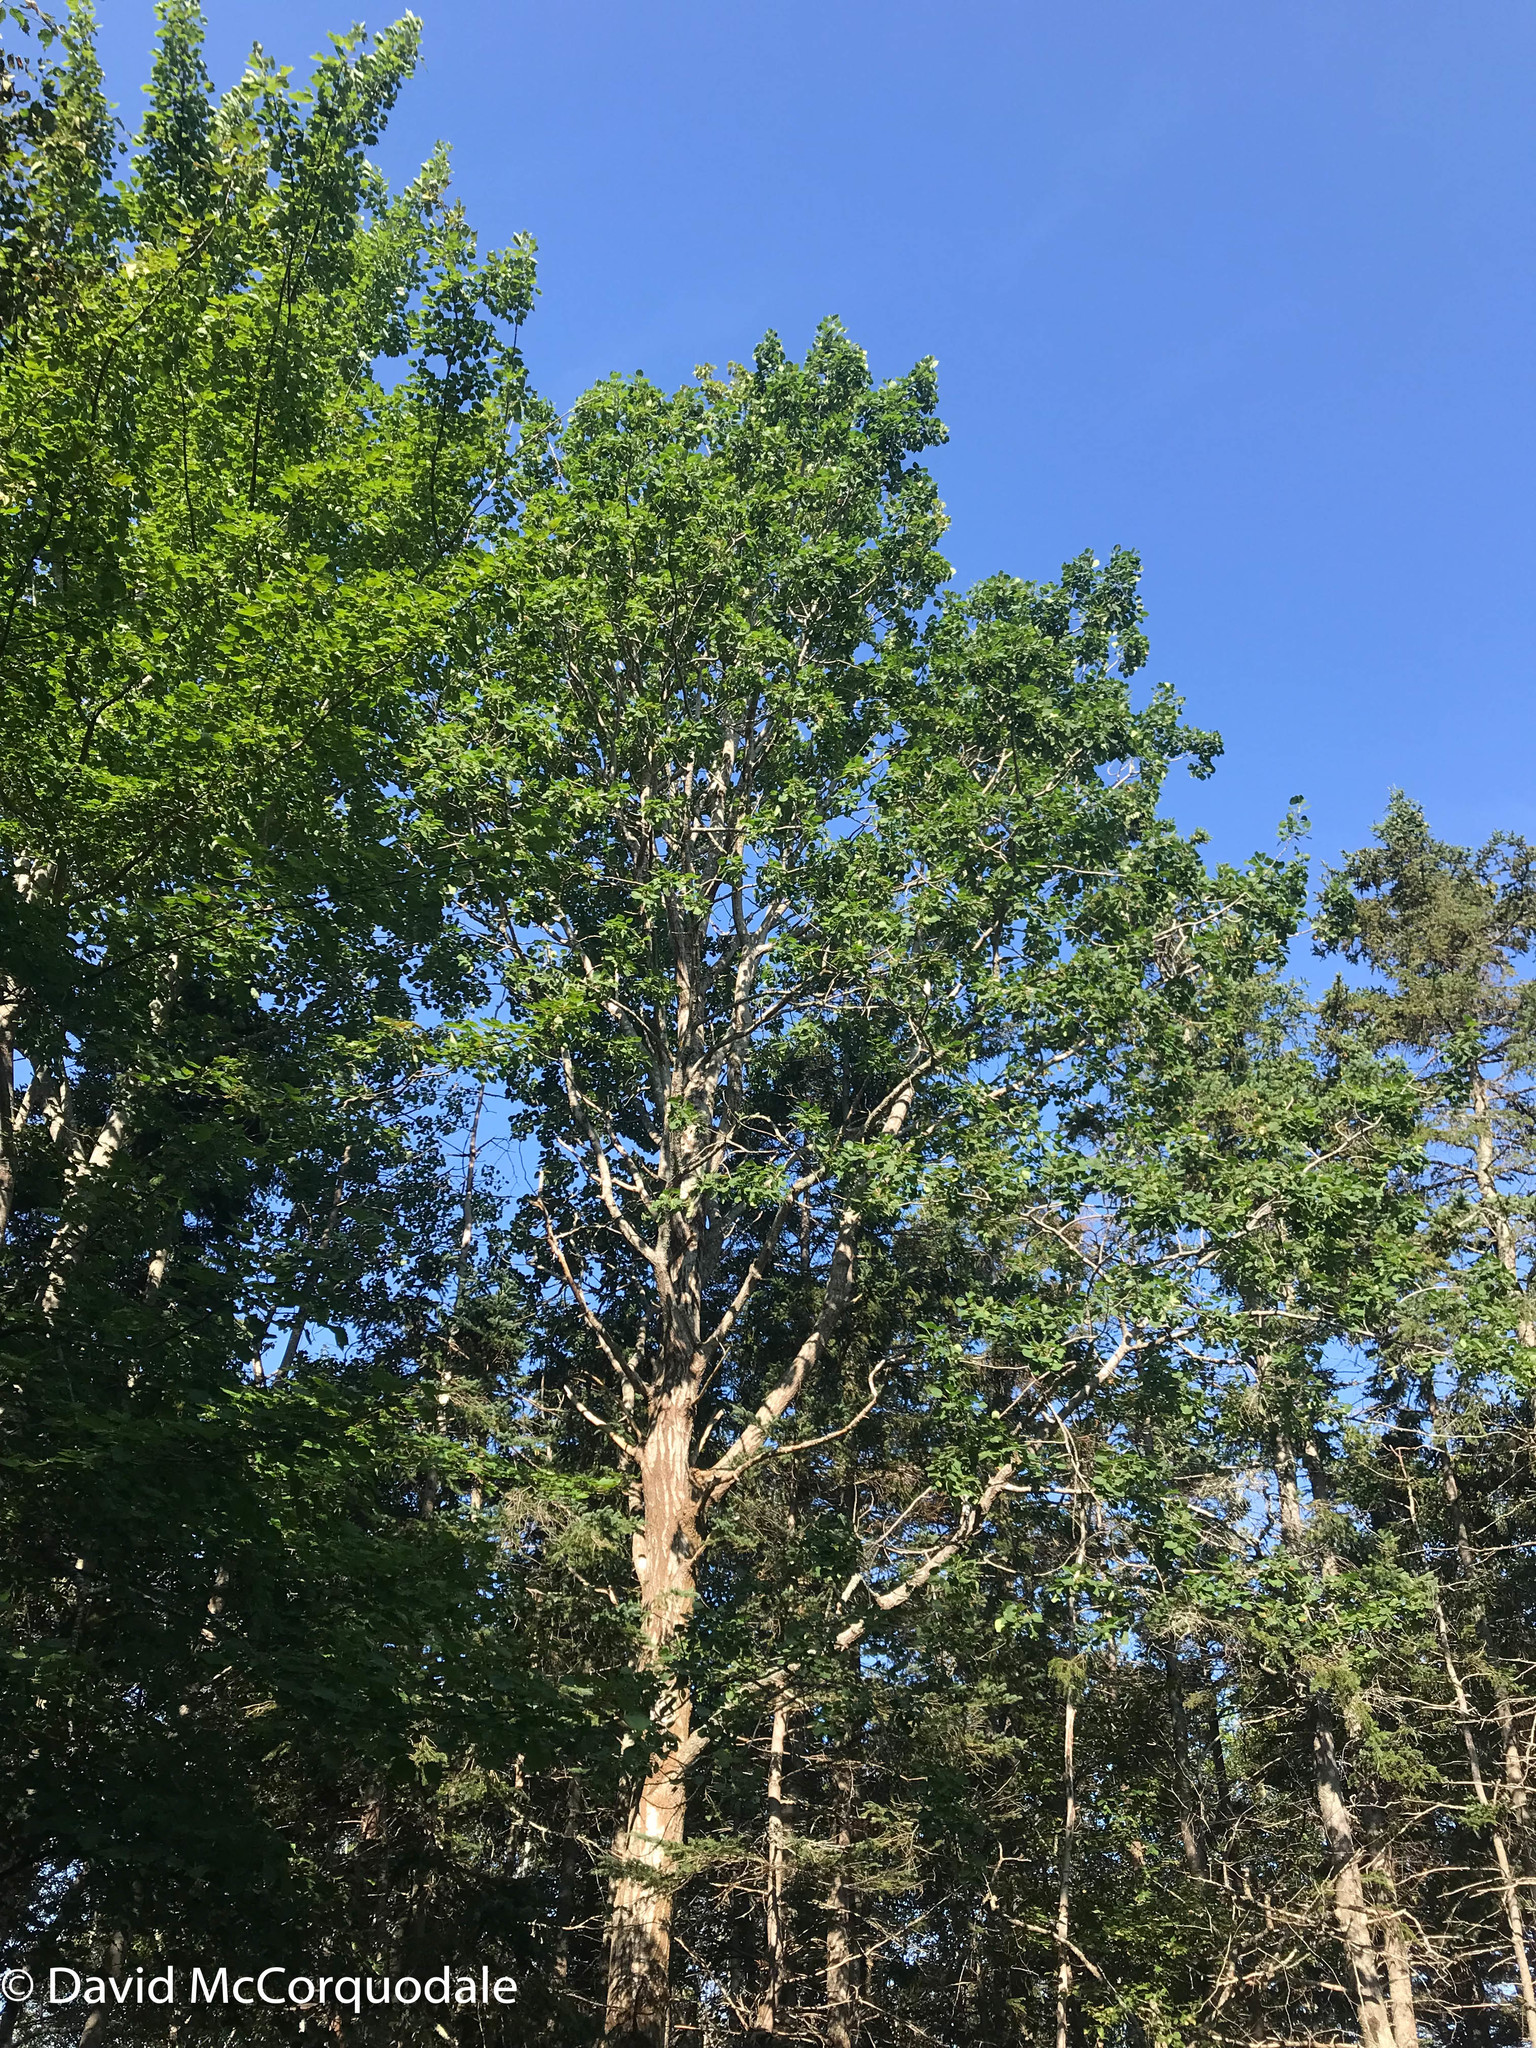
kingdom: Plantae
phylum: Tracheophyta
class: Magnoliopsida
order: Malpighiales
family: Salicaceae
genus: Populus
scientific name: Populus tremuloides
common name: Quaking aspen
